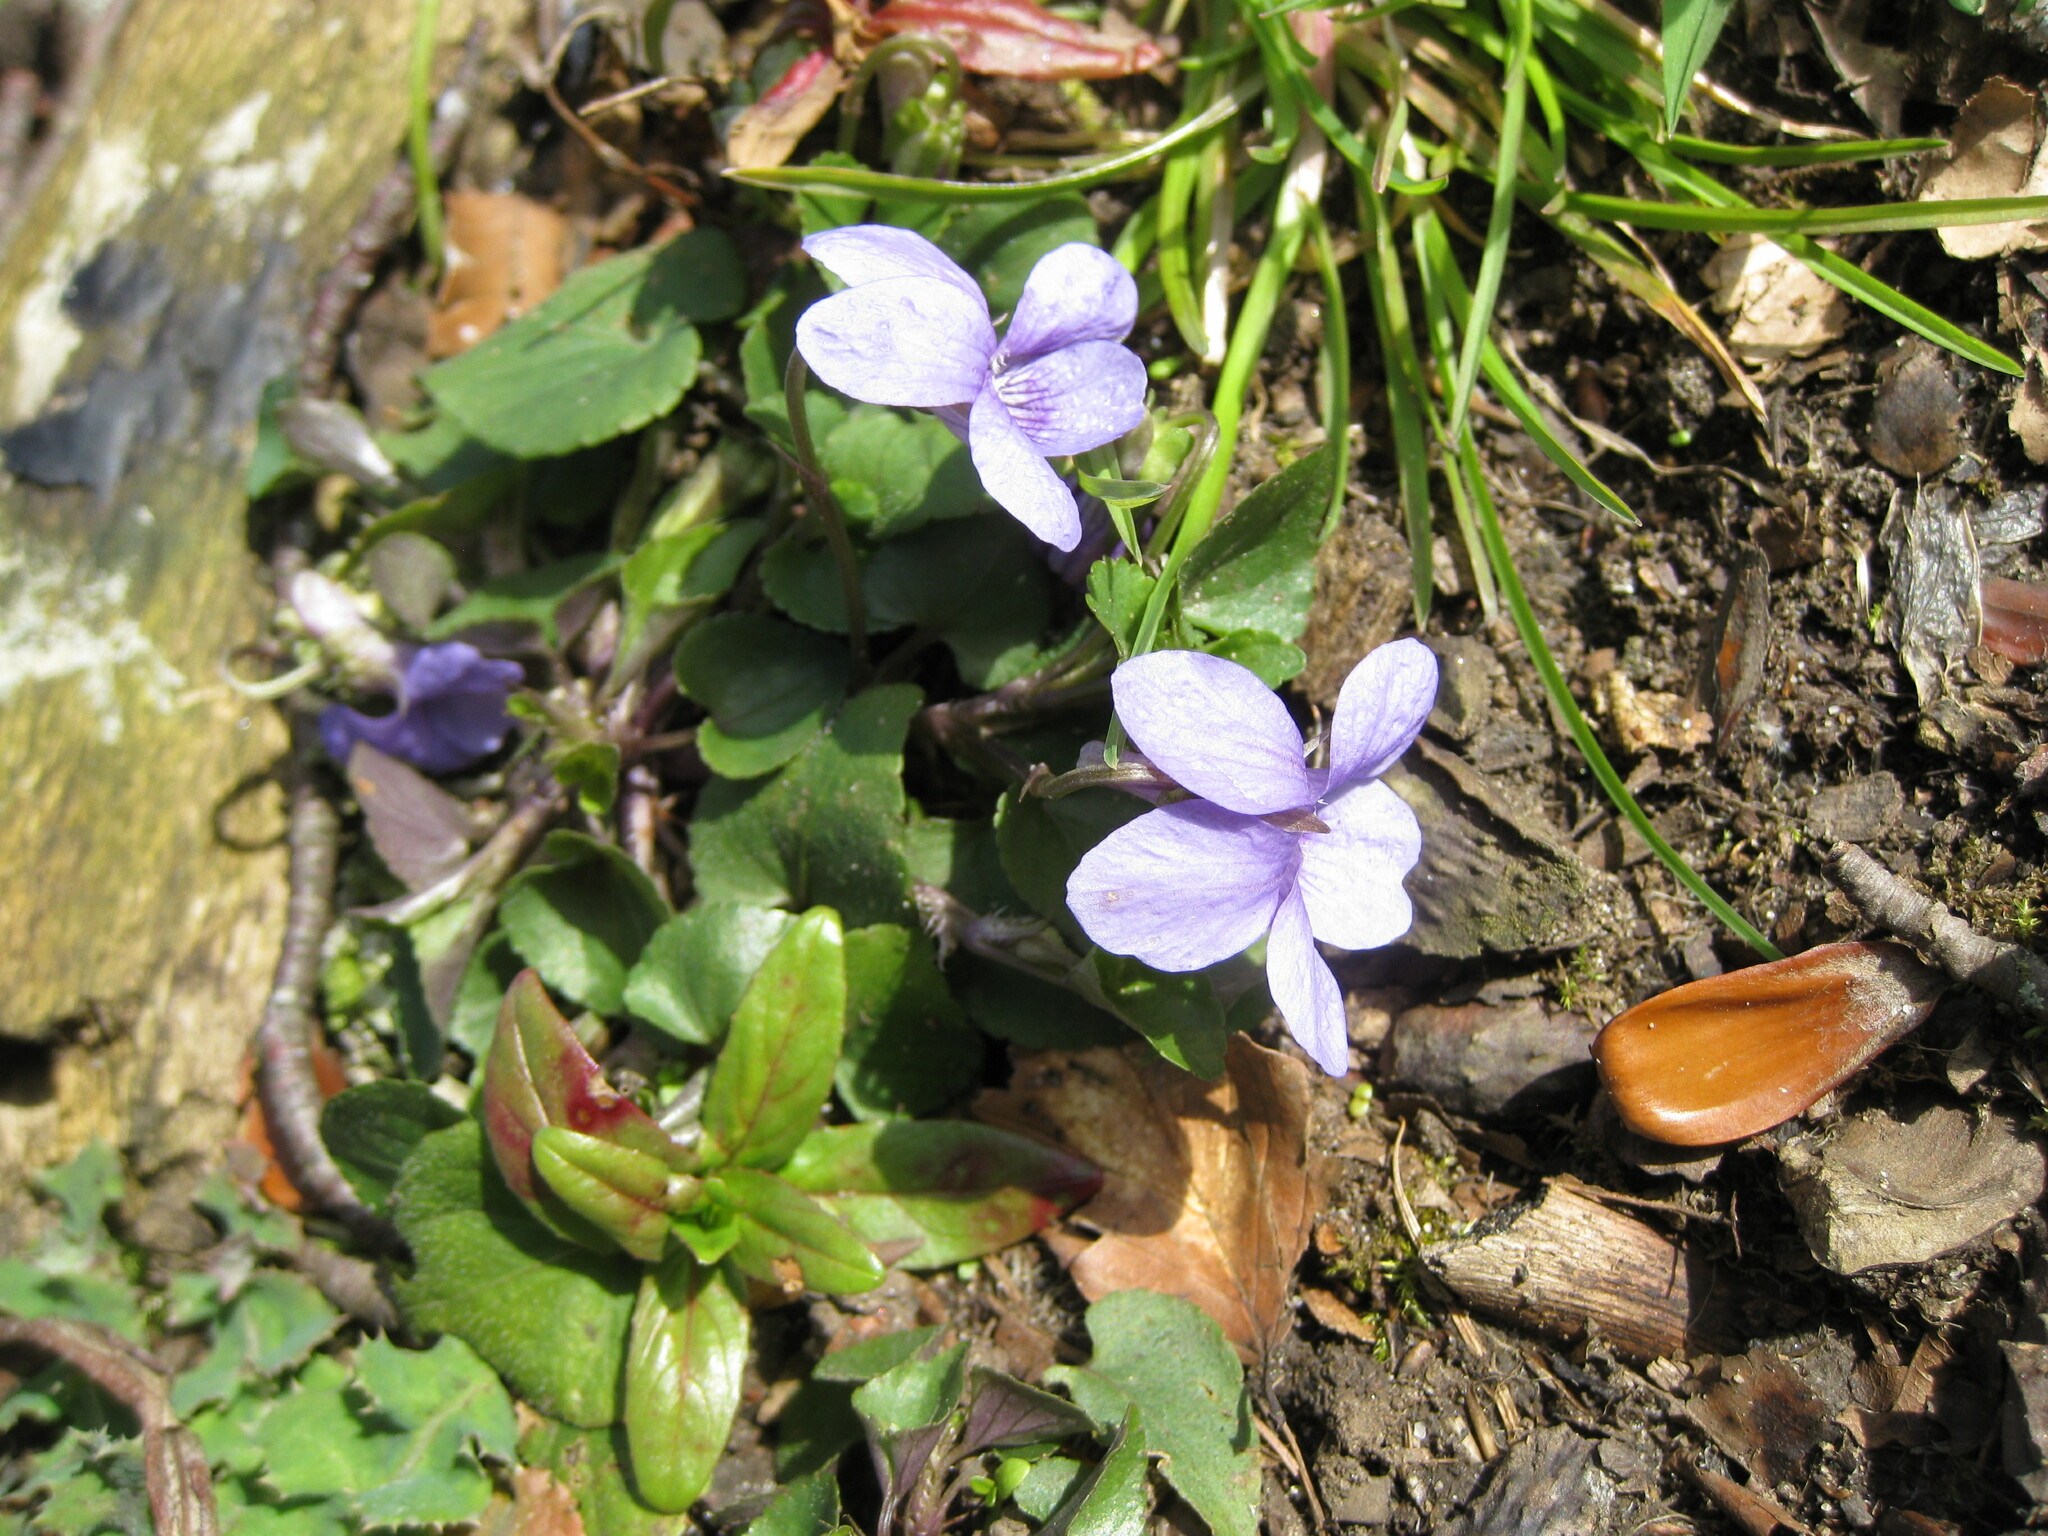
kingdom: Plantae
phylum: Tracheophyta
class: Magnoliopsida
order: Malpighiales
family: Violaceae
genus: Viola
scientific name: Viola riviniana
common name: Common dog-violet
